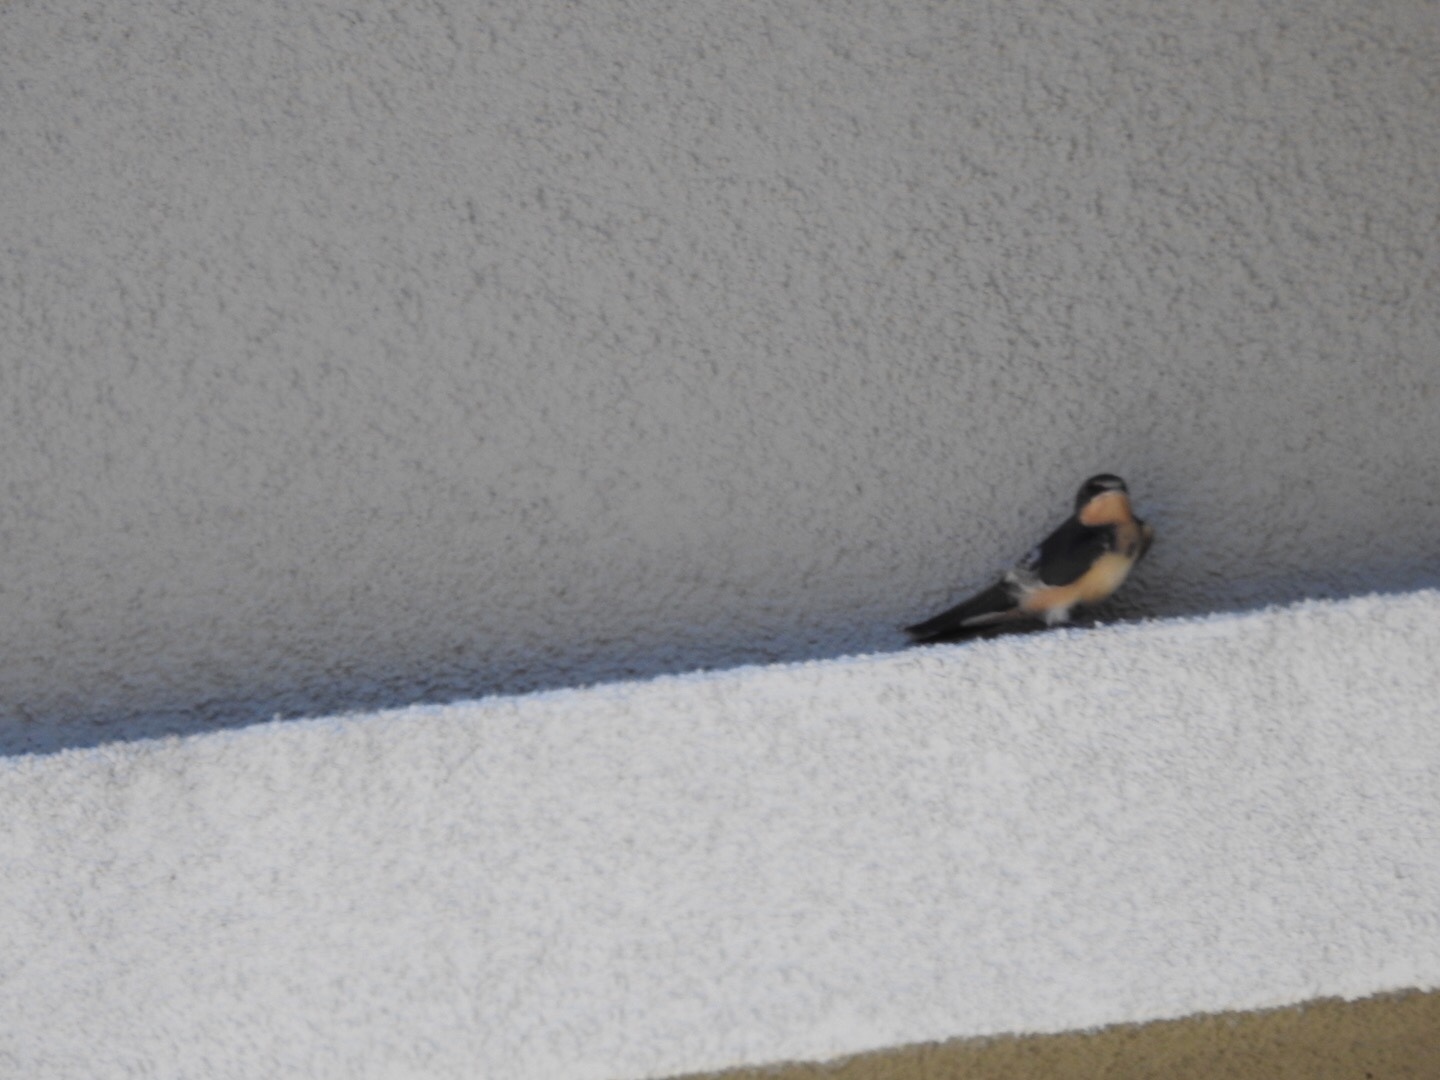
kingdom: Animalia
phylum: Chordata
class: Aves
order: Passeriformes
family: Hirundinidae
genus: Hirundo
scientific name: Hirundo rustica
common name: Barn swallow
